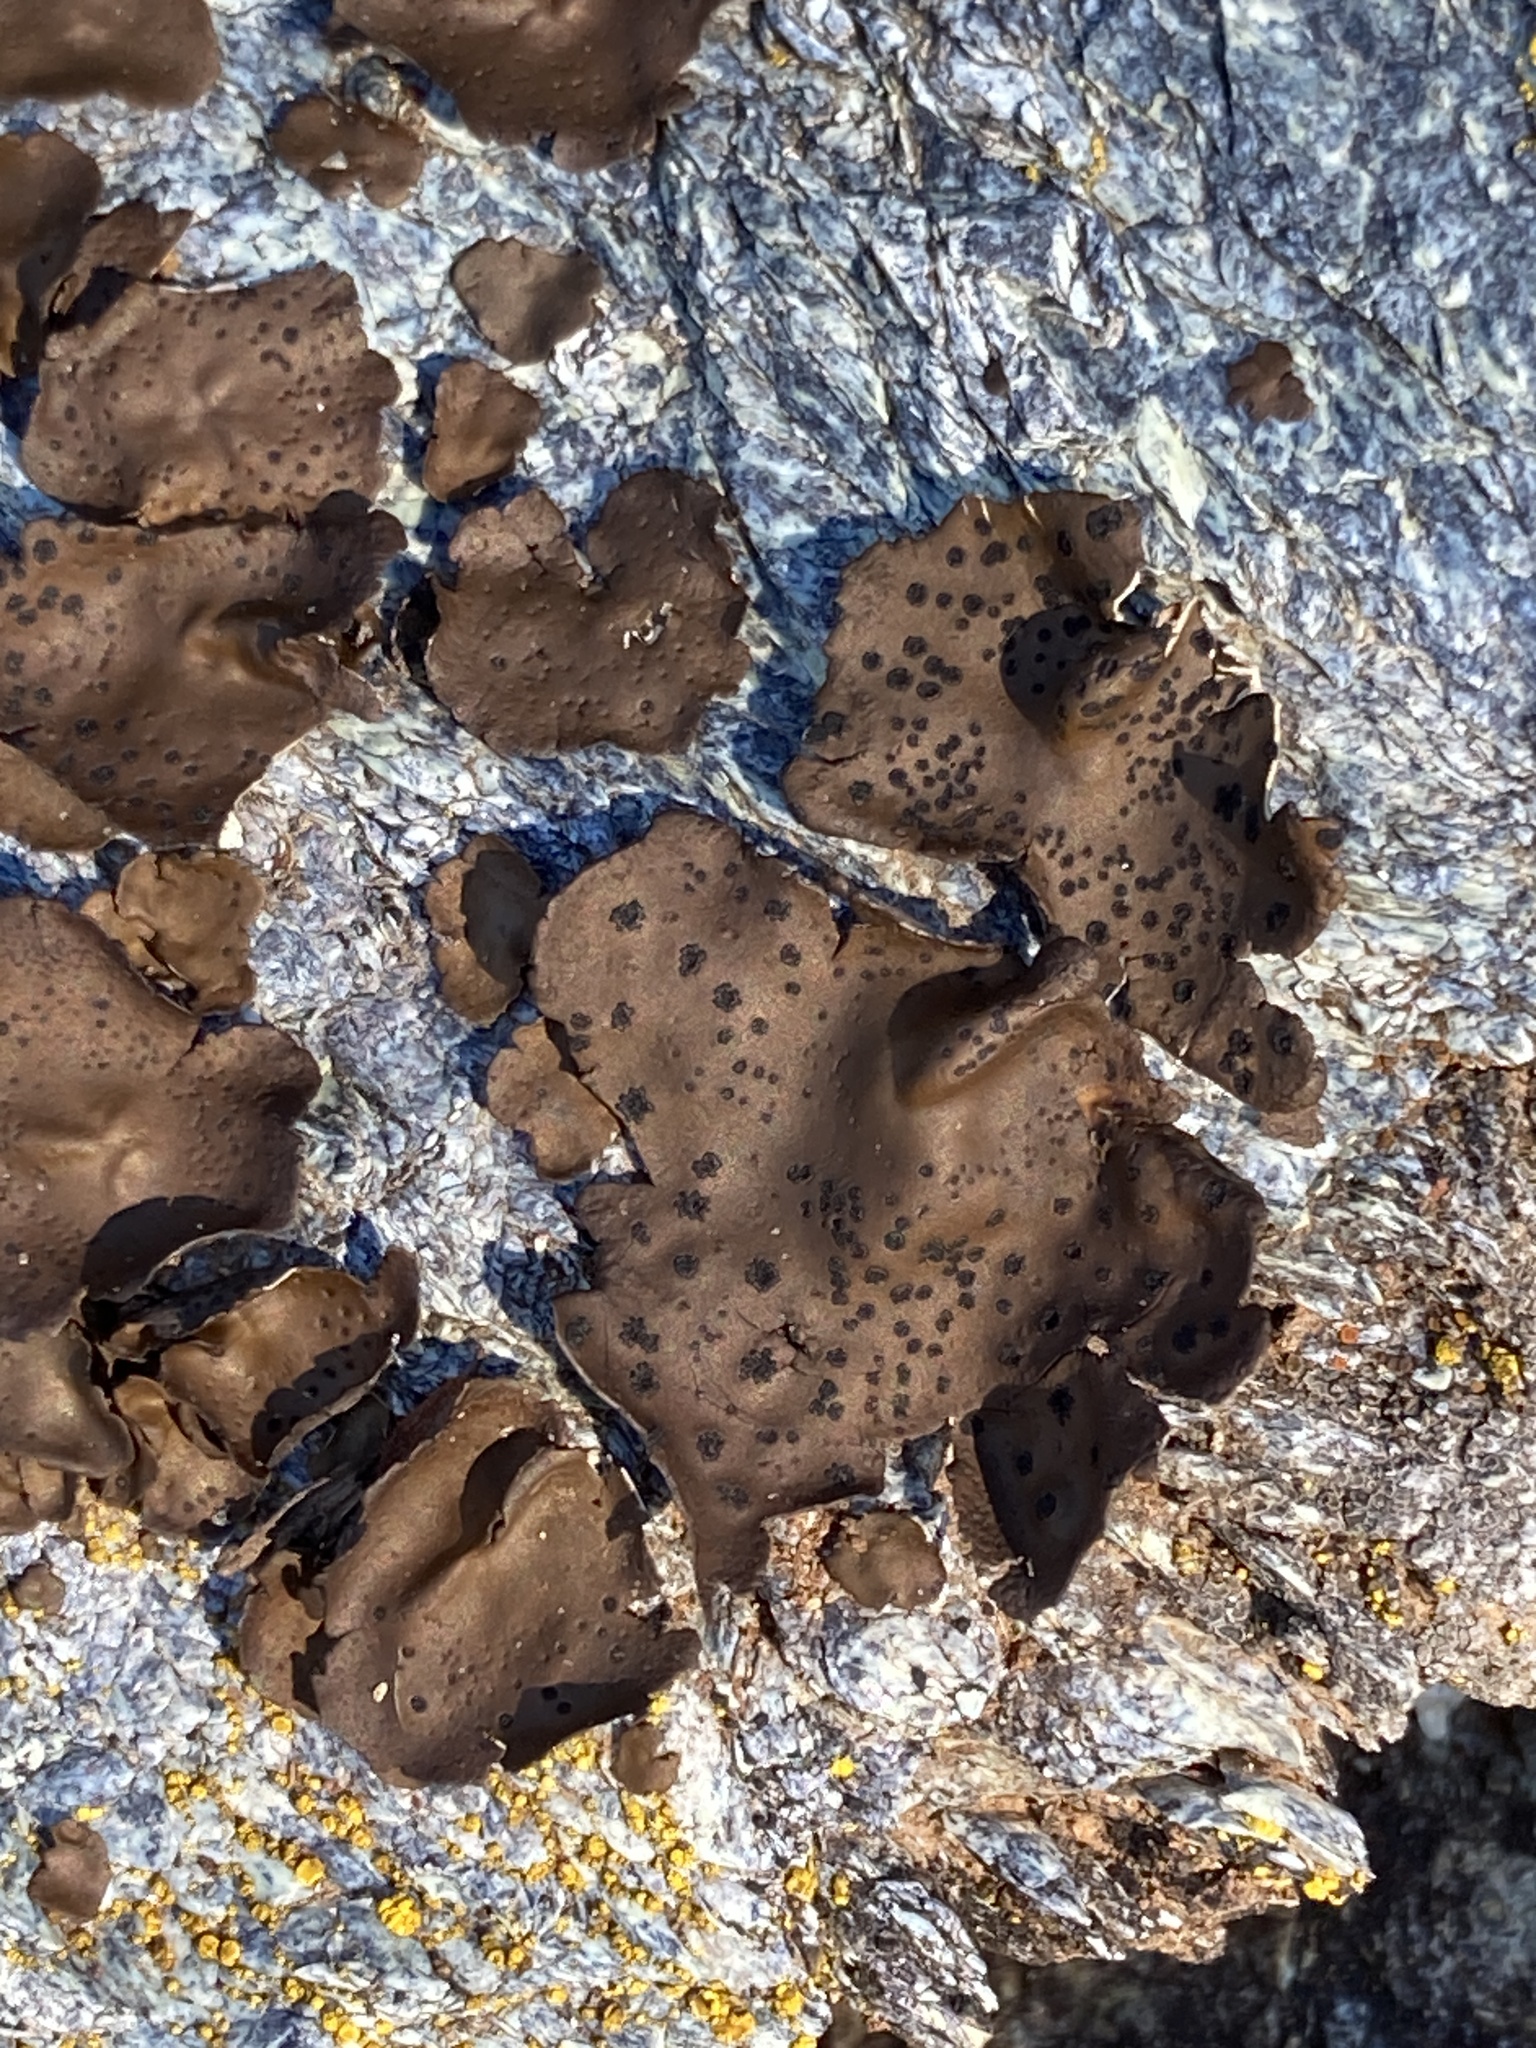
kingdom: Fungi
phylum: Ascomycota
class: Lecanoromycetes
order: Umbilicariales
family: Umbilicariaceae
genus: Umbilicaria
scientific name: Umbilicaria phaea
